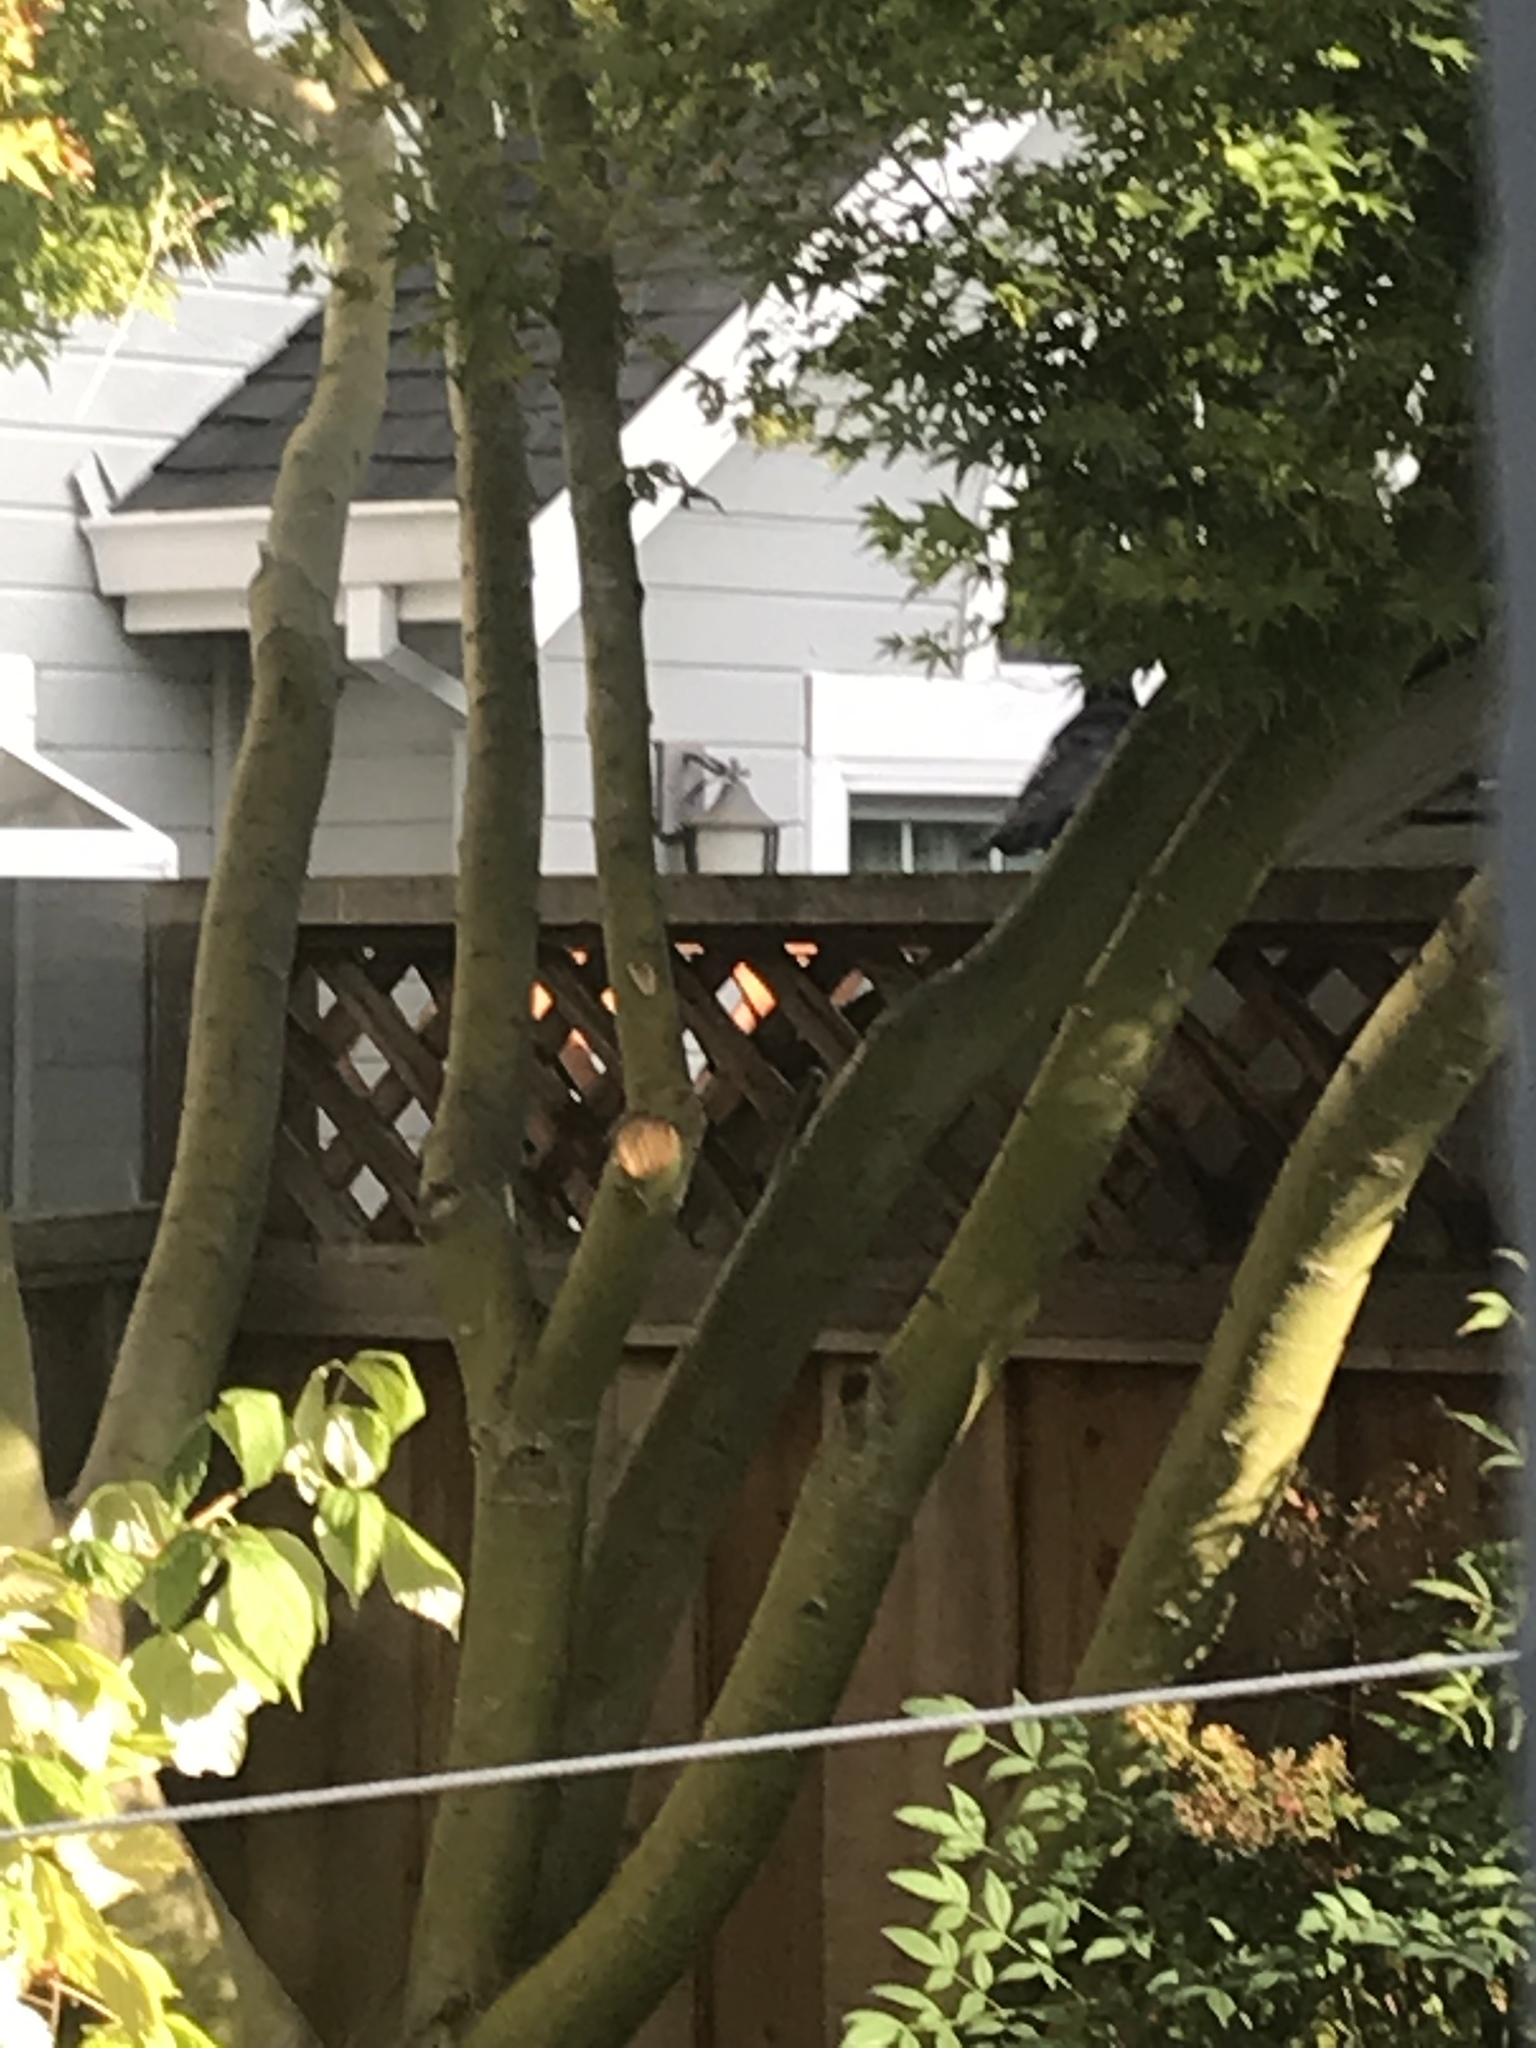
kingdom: Animalia
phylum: Chordata
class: Aves
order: Passeriformes
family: Corvidae
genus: Corvus
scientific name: Corvus brachyrhynchos
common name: American crow
